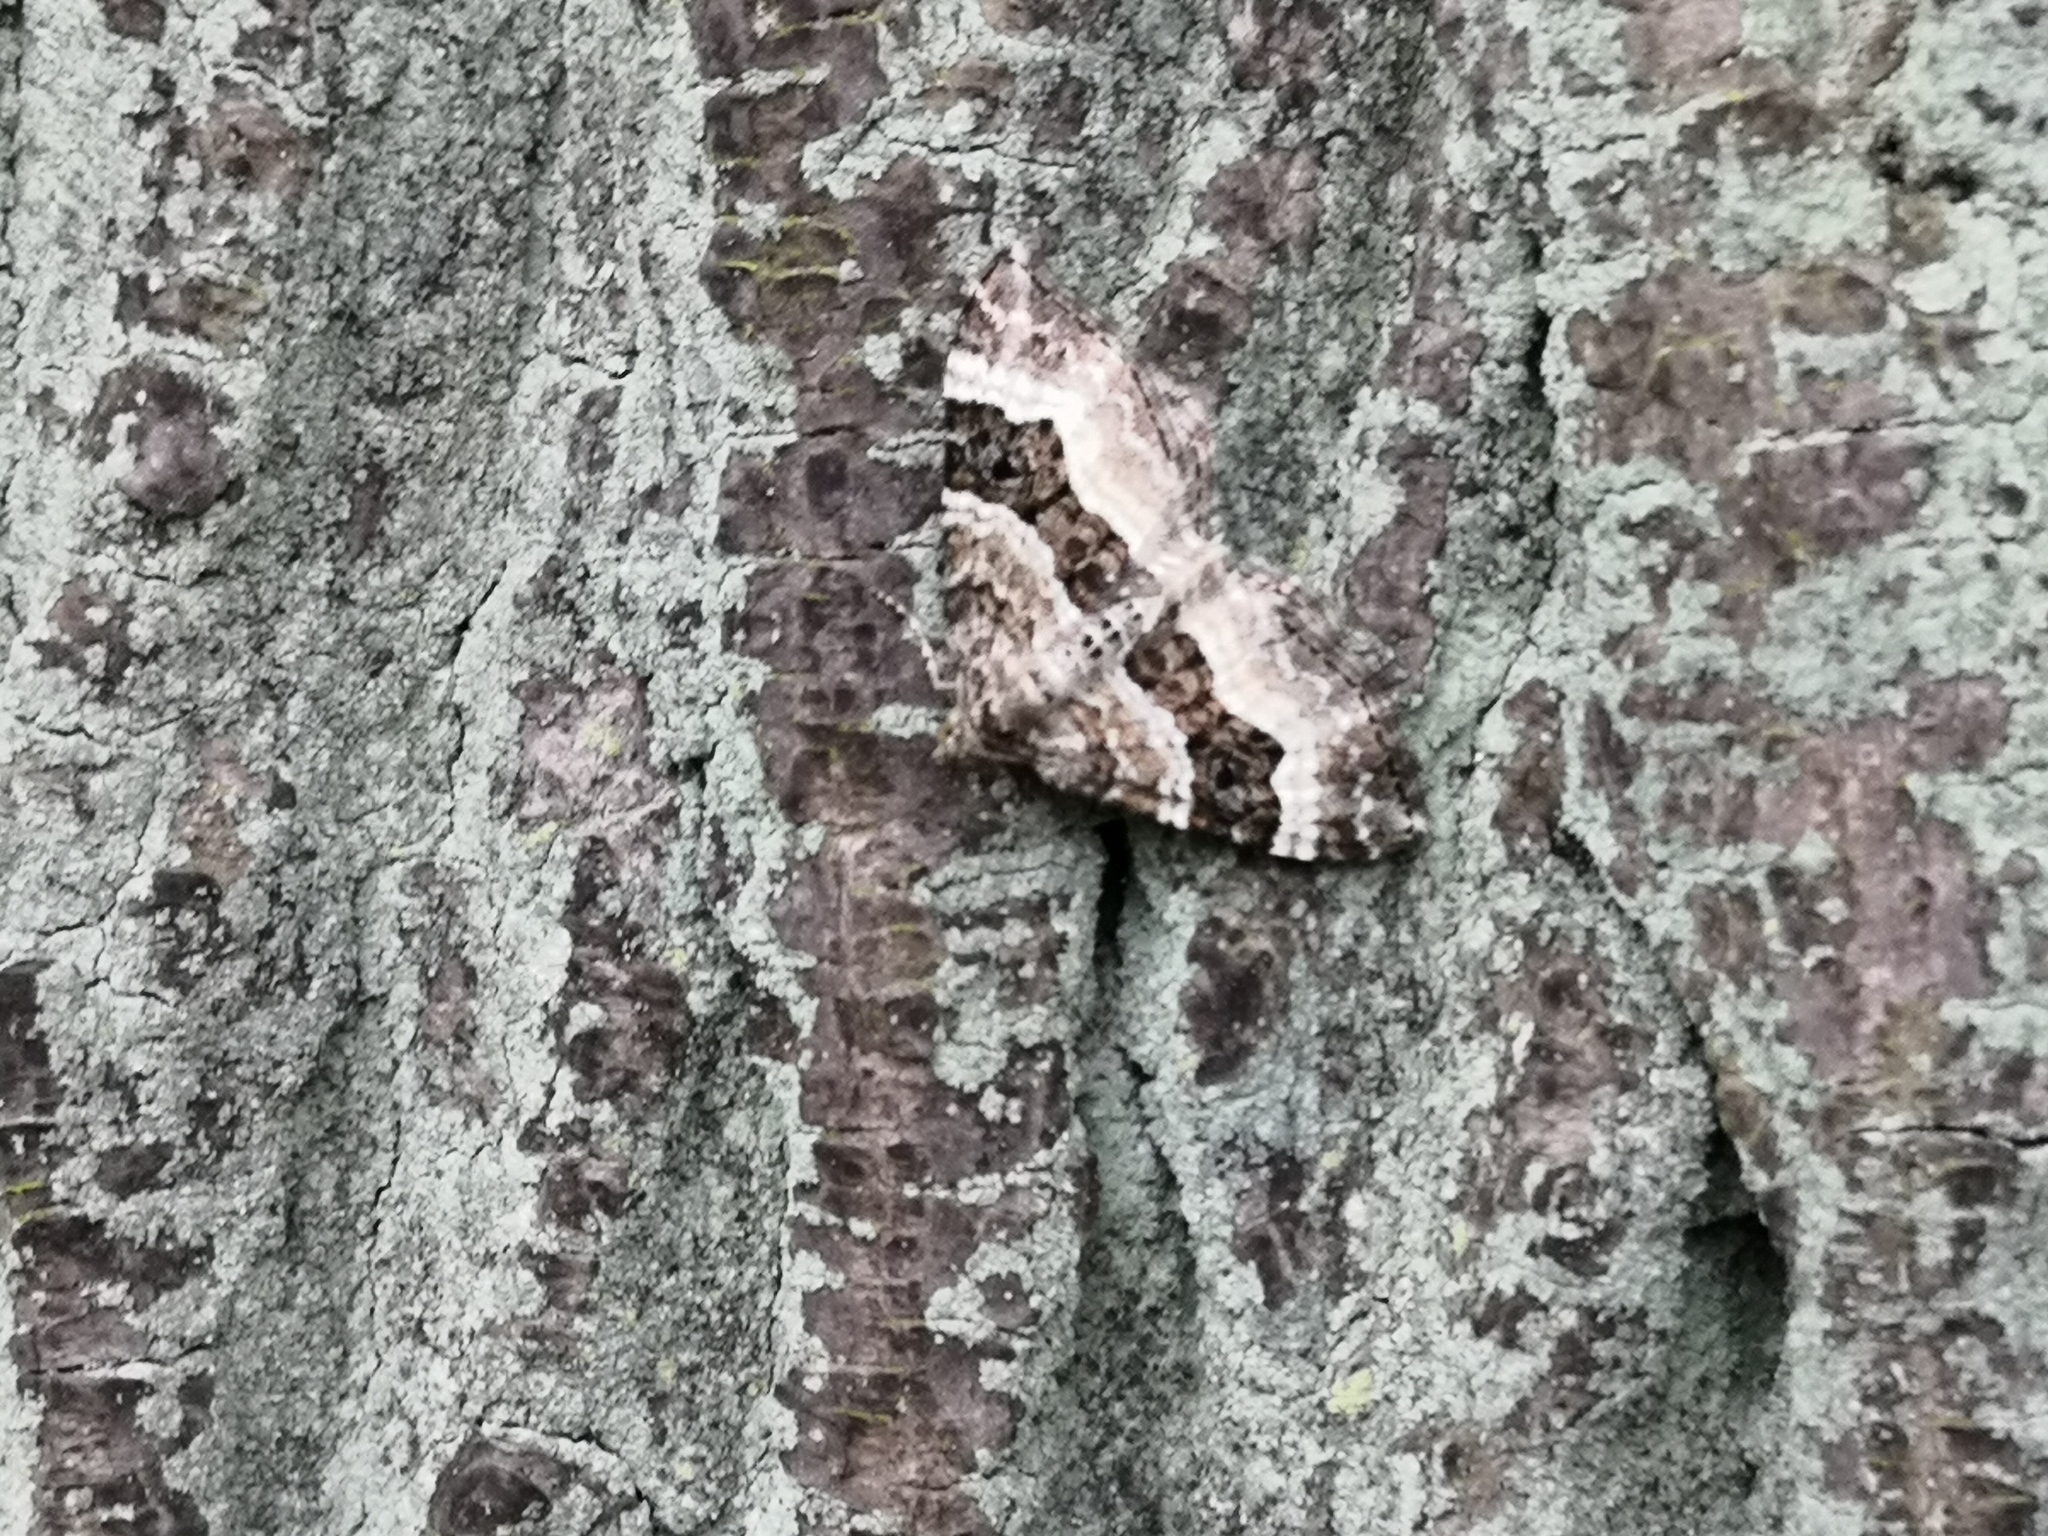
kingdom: Animalia
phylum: Arthropoda
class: Insecta
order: Lepidoptera
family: Geometridae
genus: Epirrhoe
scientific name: Epirrhoe alternata
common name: Common carpet
